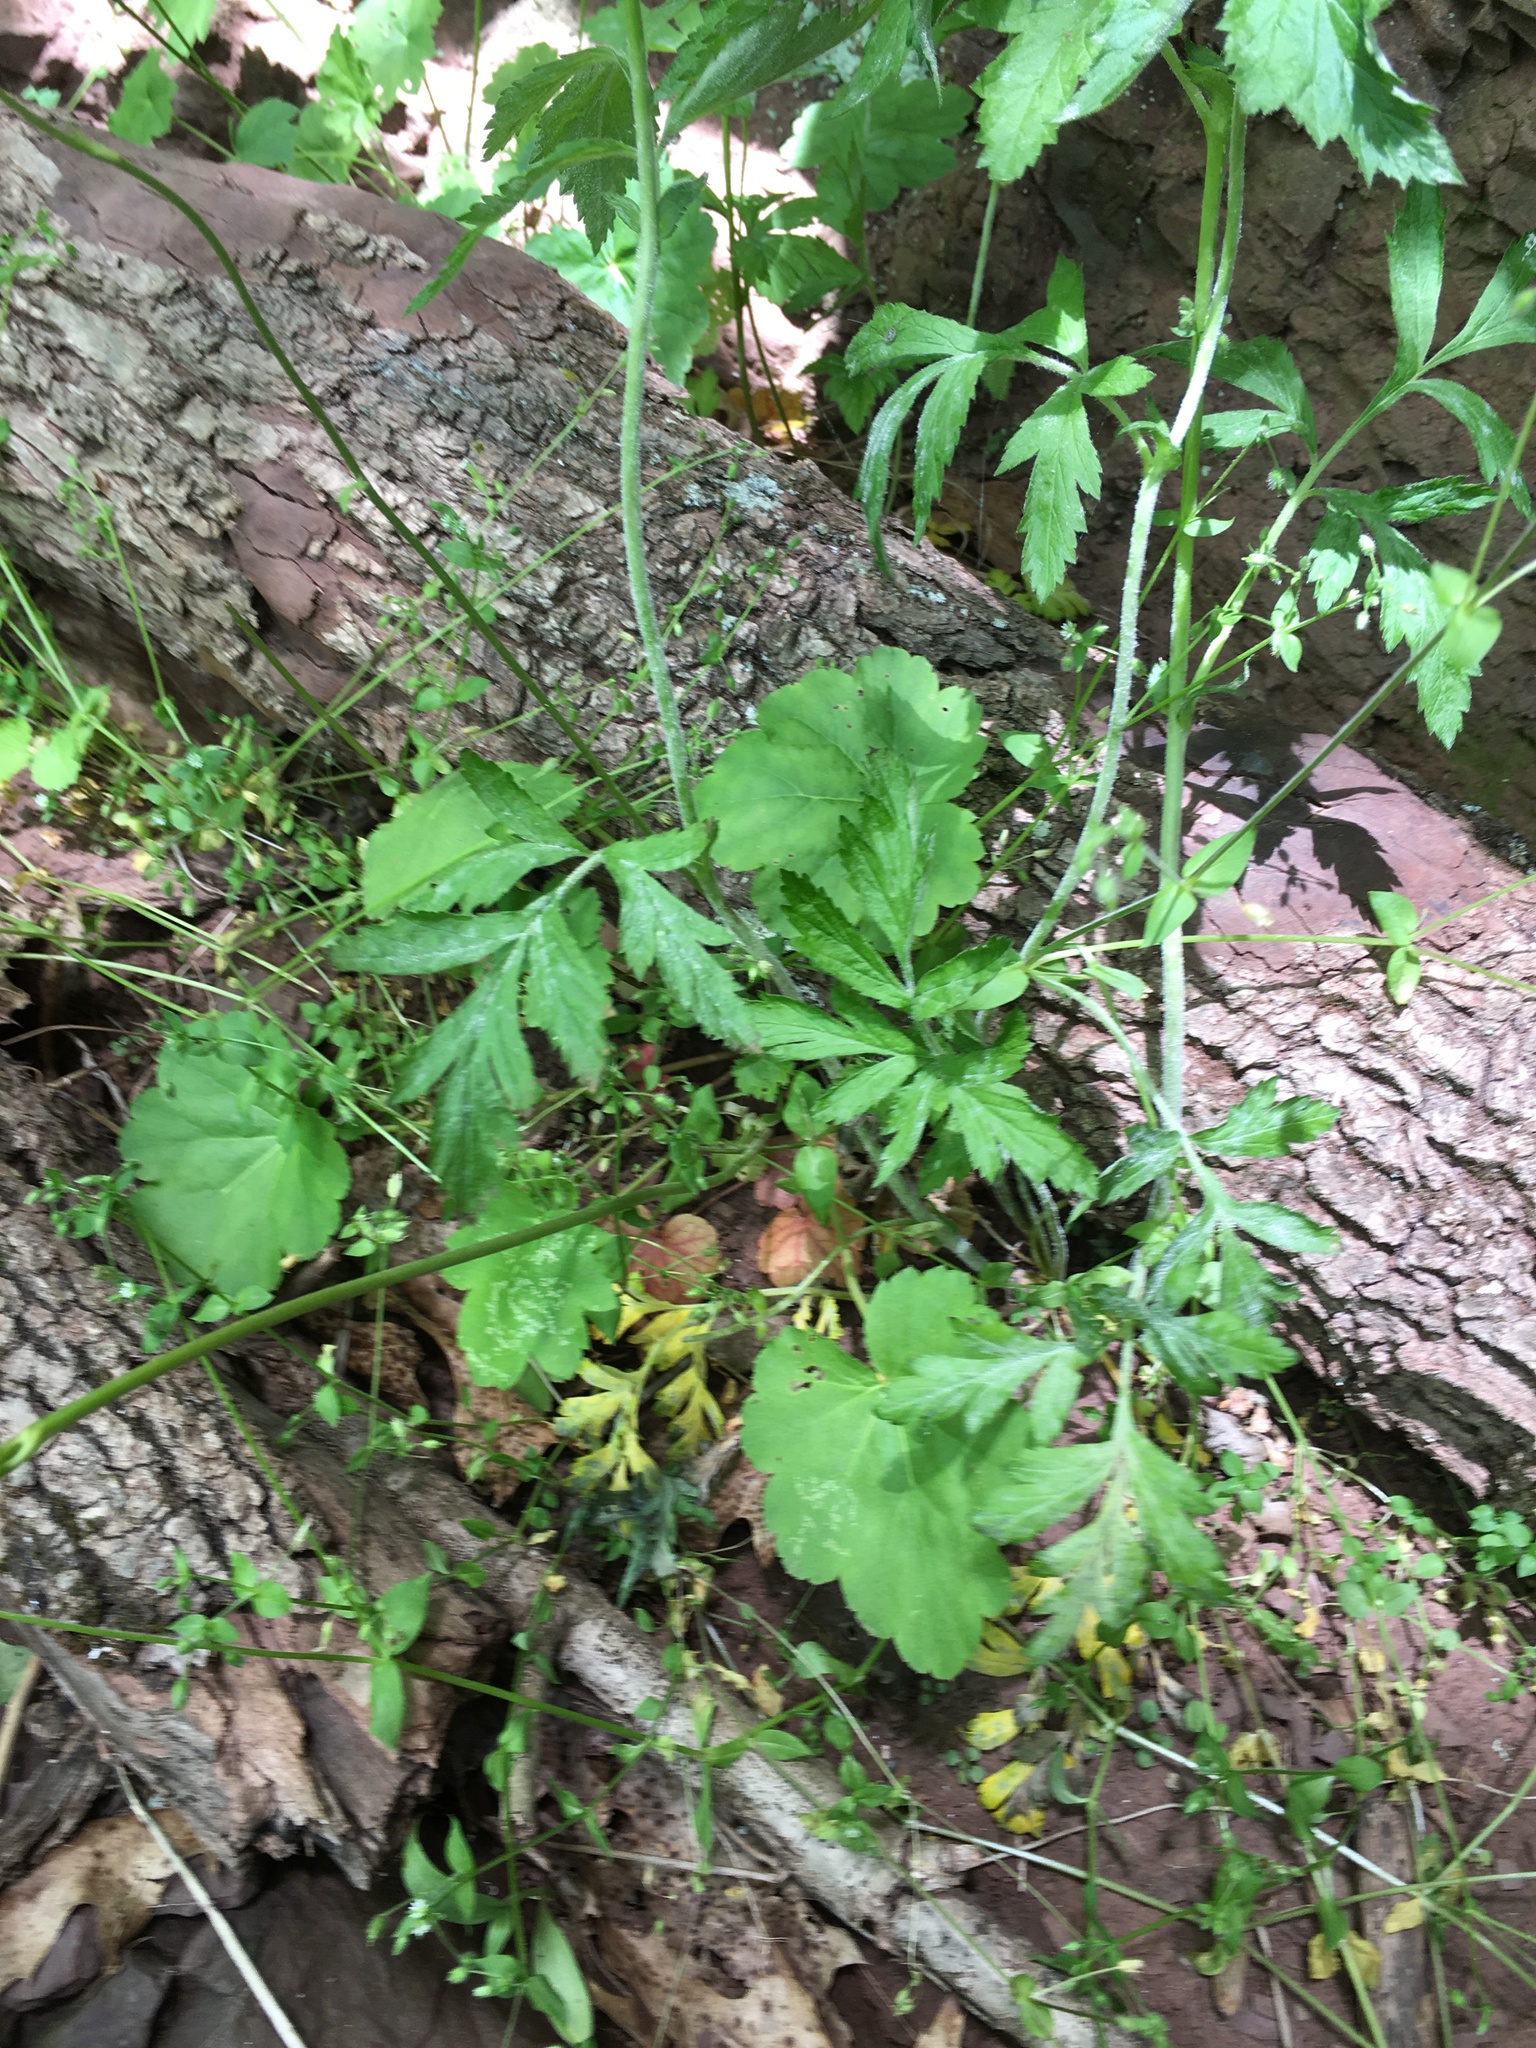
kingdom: Plantae
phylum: Tracheophyta
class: Magnoliopsida
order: Saxifragales
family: Saxifragaceae
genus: Heuchera
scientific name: Heuchera alba
